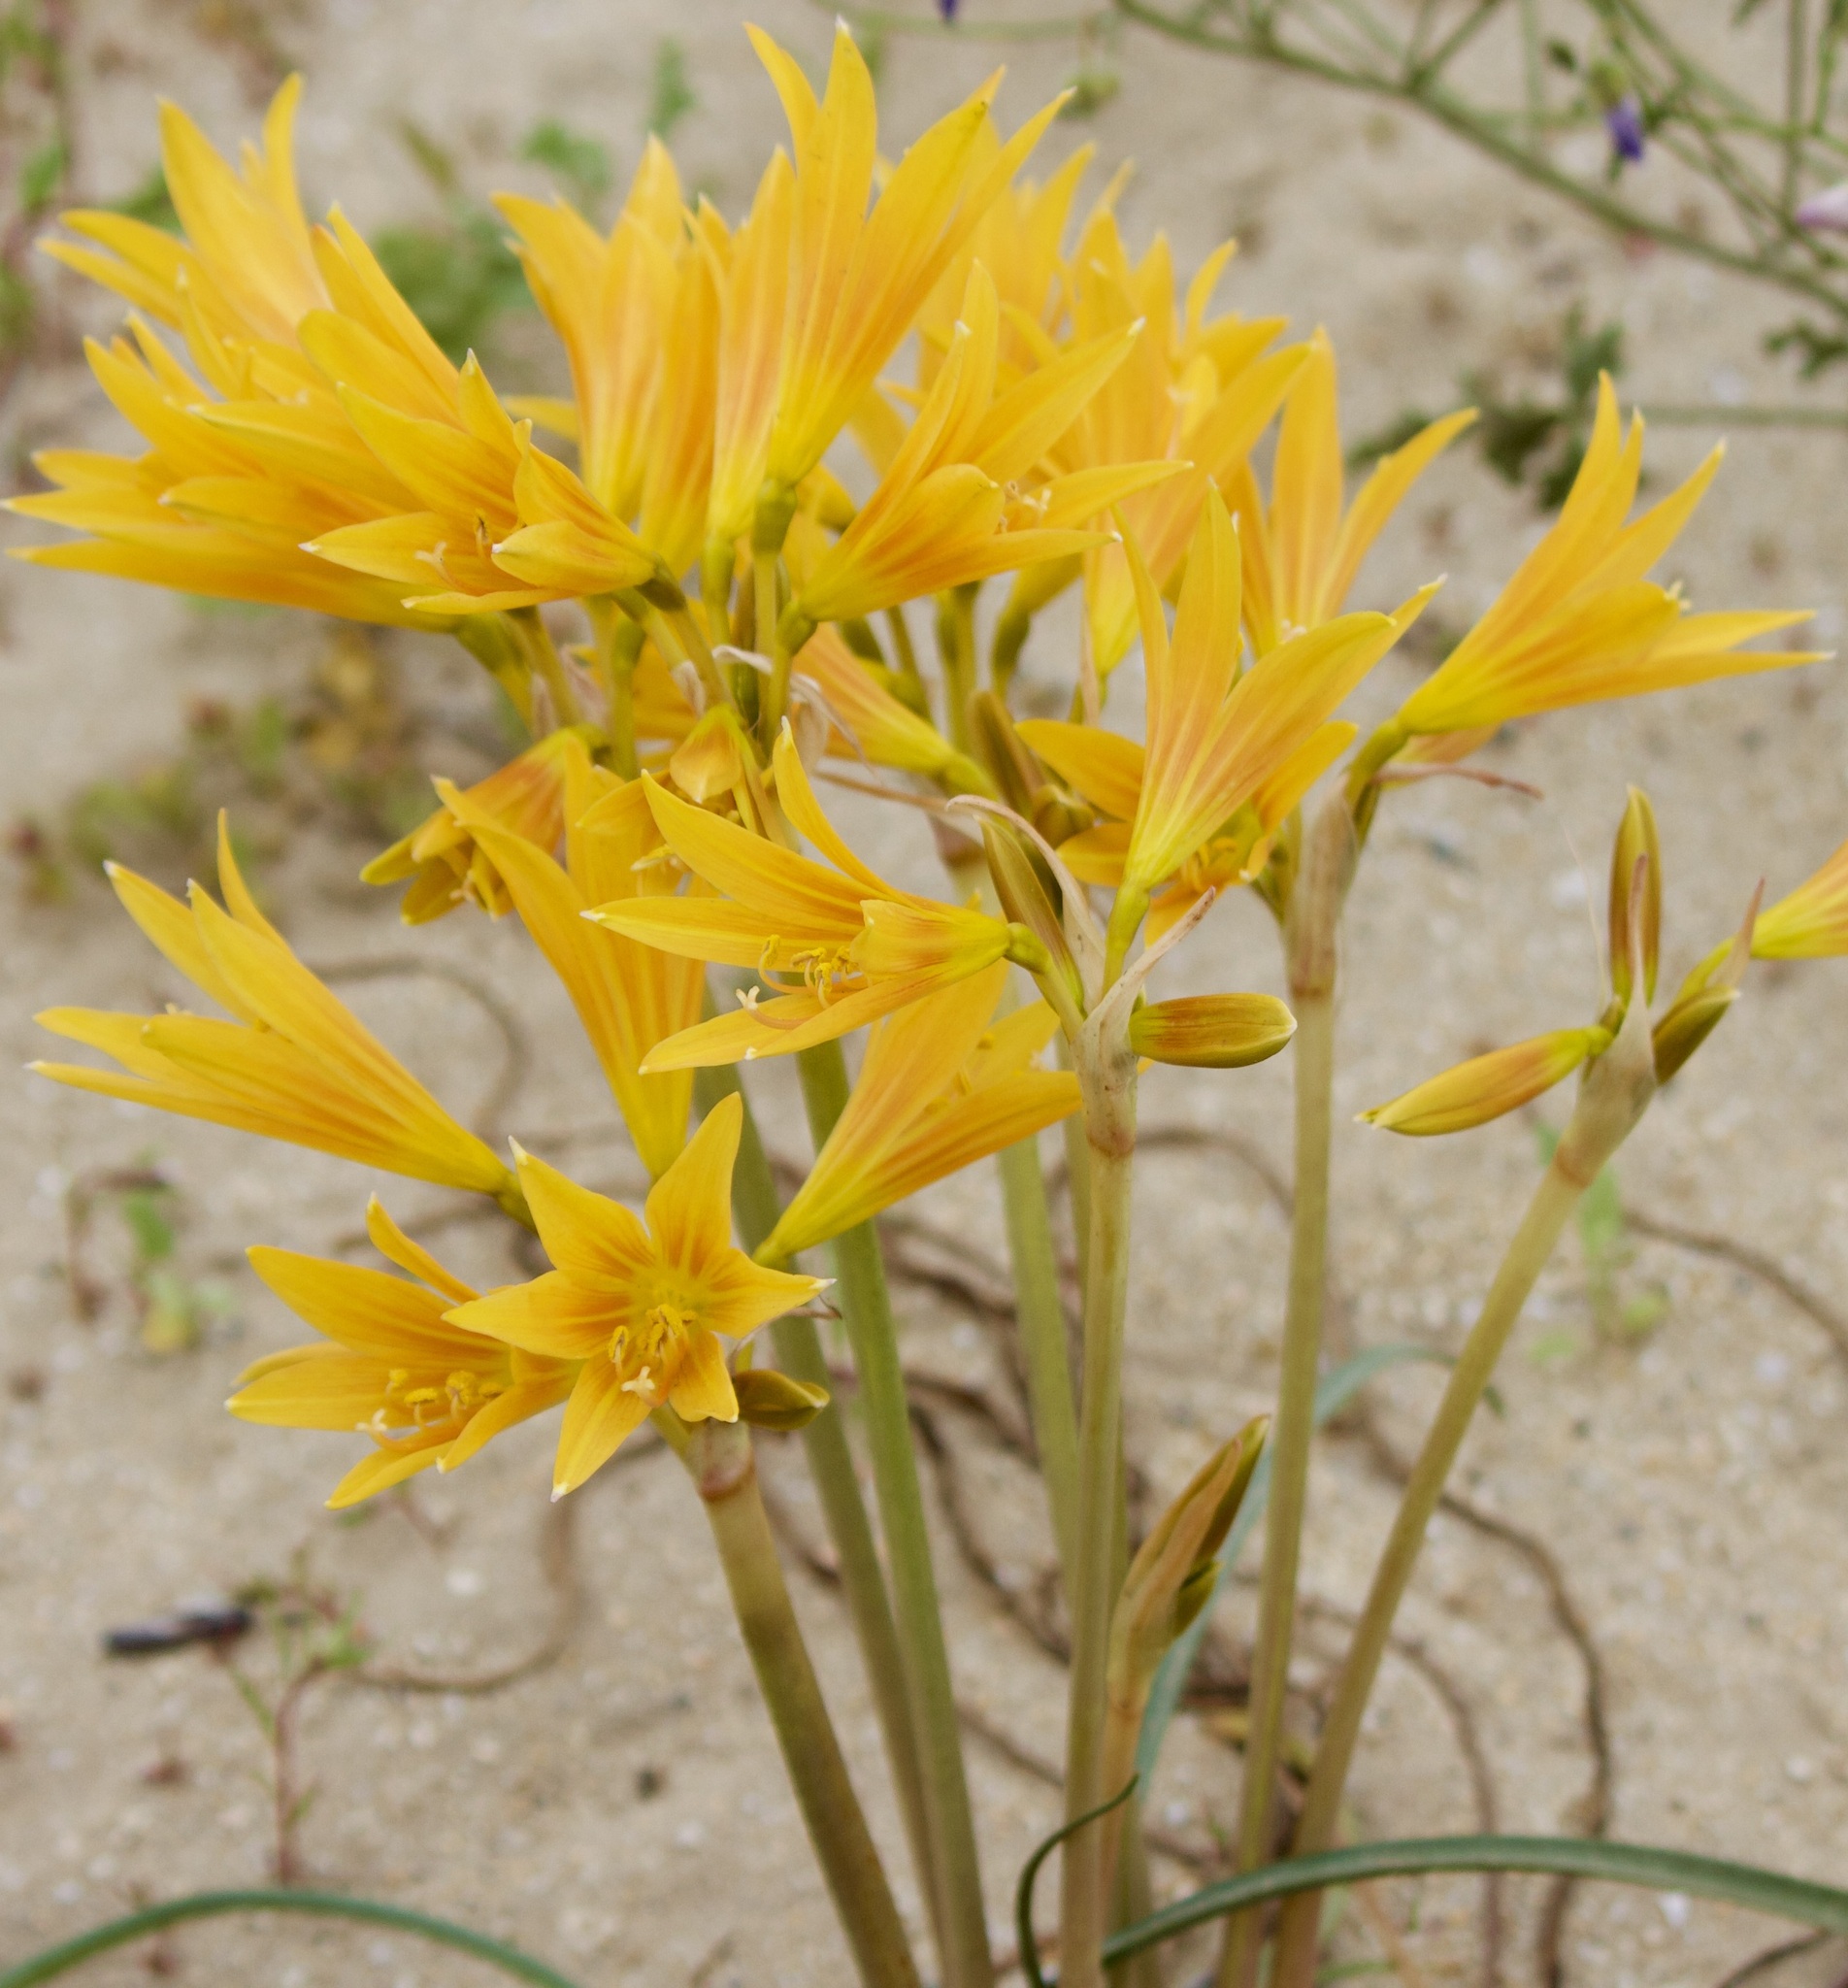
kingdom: Plantae
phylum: Tracheophyta
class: Liliopsida
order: Asparagales
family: Amaryllidaceae
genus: Zephyranthes
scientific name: Zephyranthes bagnoldii
